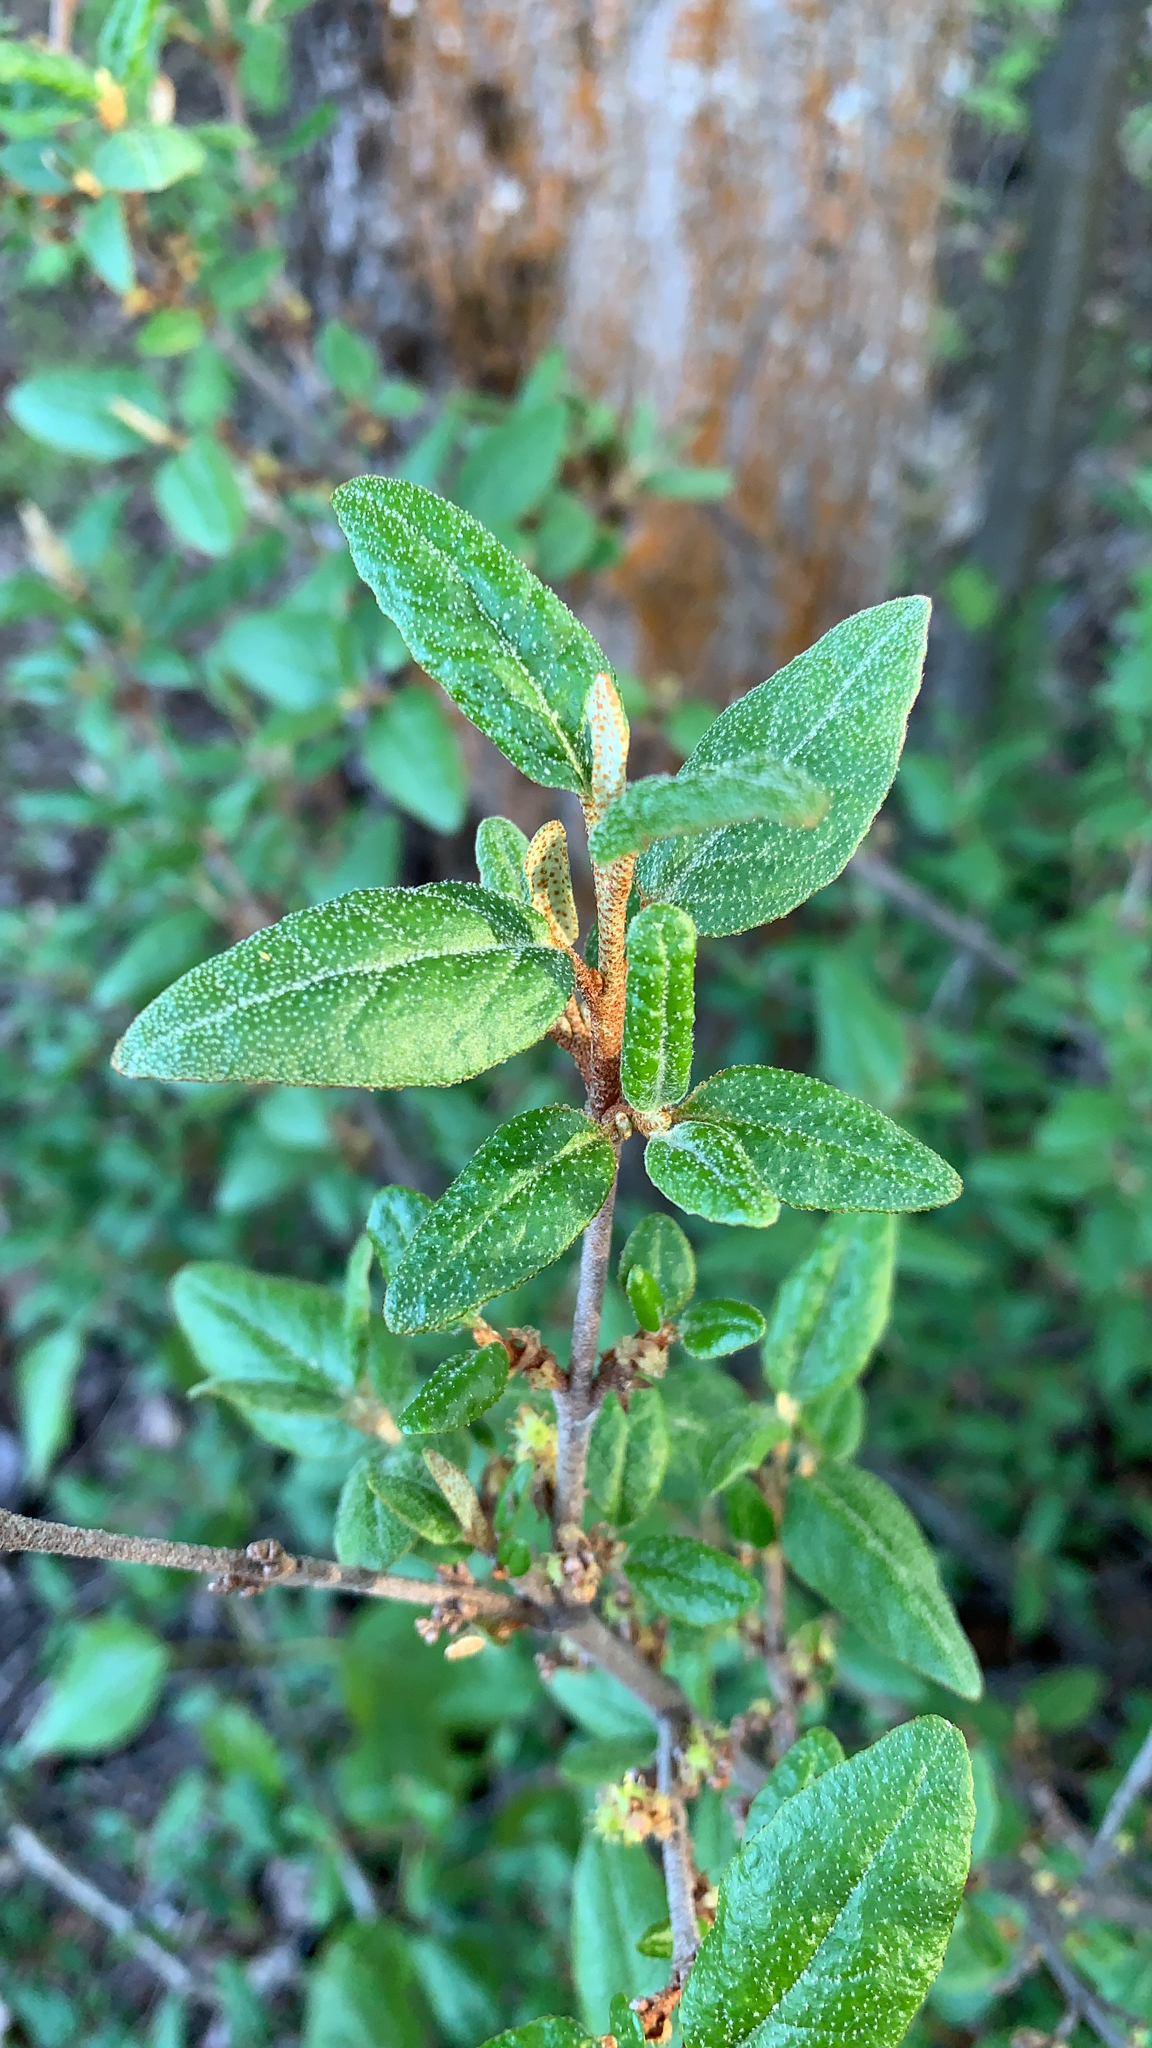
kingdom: Plantae
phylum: Tracheophyta
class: Magnoliopsida
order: Rosales
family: Elaeagnaceae
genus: Shepherdia
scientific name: Shepherdia canadensis
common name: Soapberry
